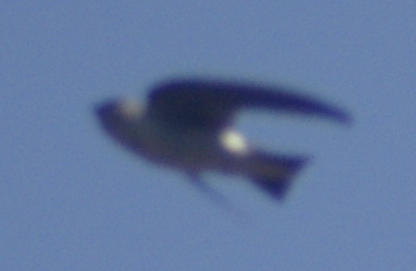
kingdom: Animalia
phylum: Chordata
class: Aves
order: Passeriformes
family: Hirundinidae
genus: Tachycineta
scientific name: Tachycineta thalassina
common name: Violet-green swallow
